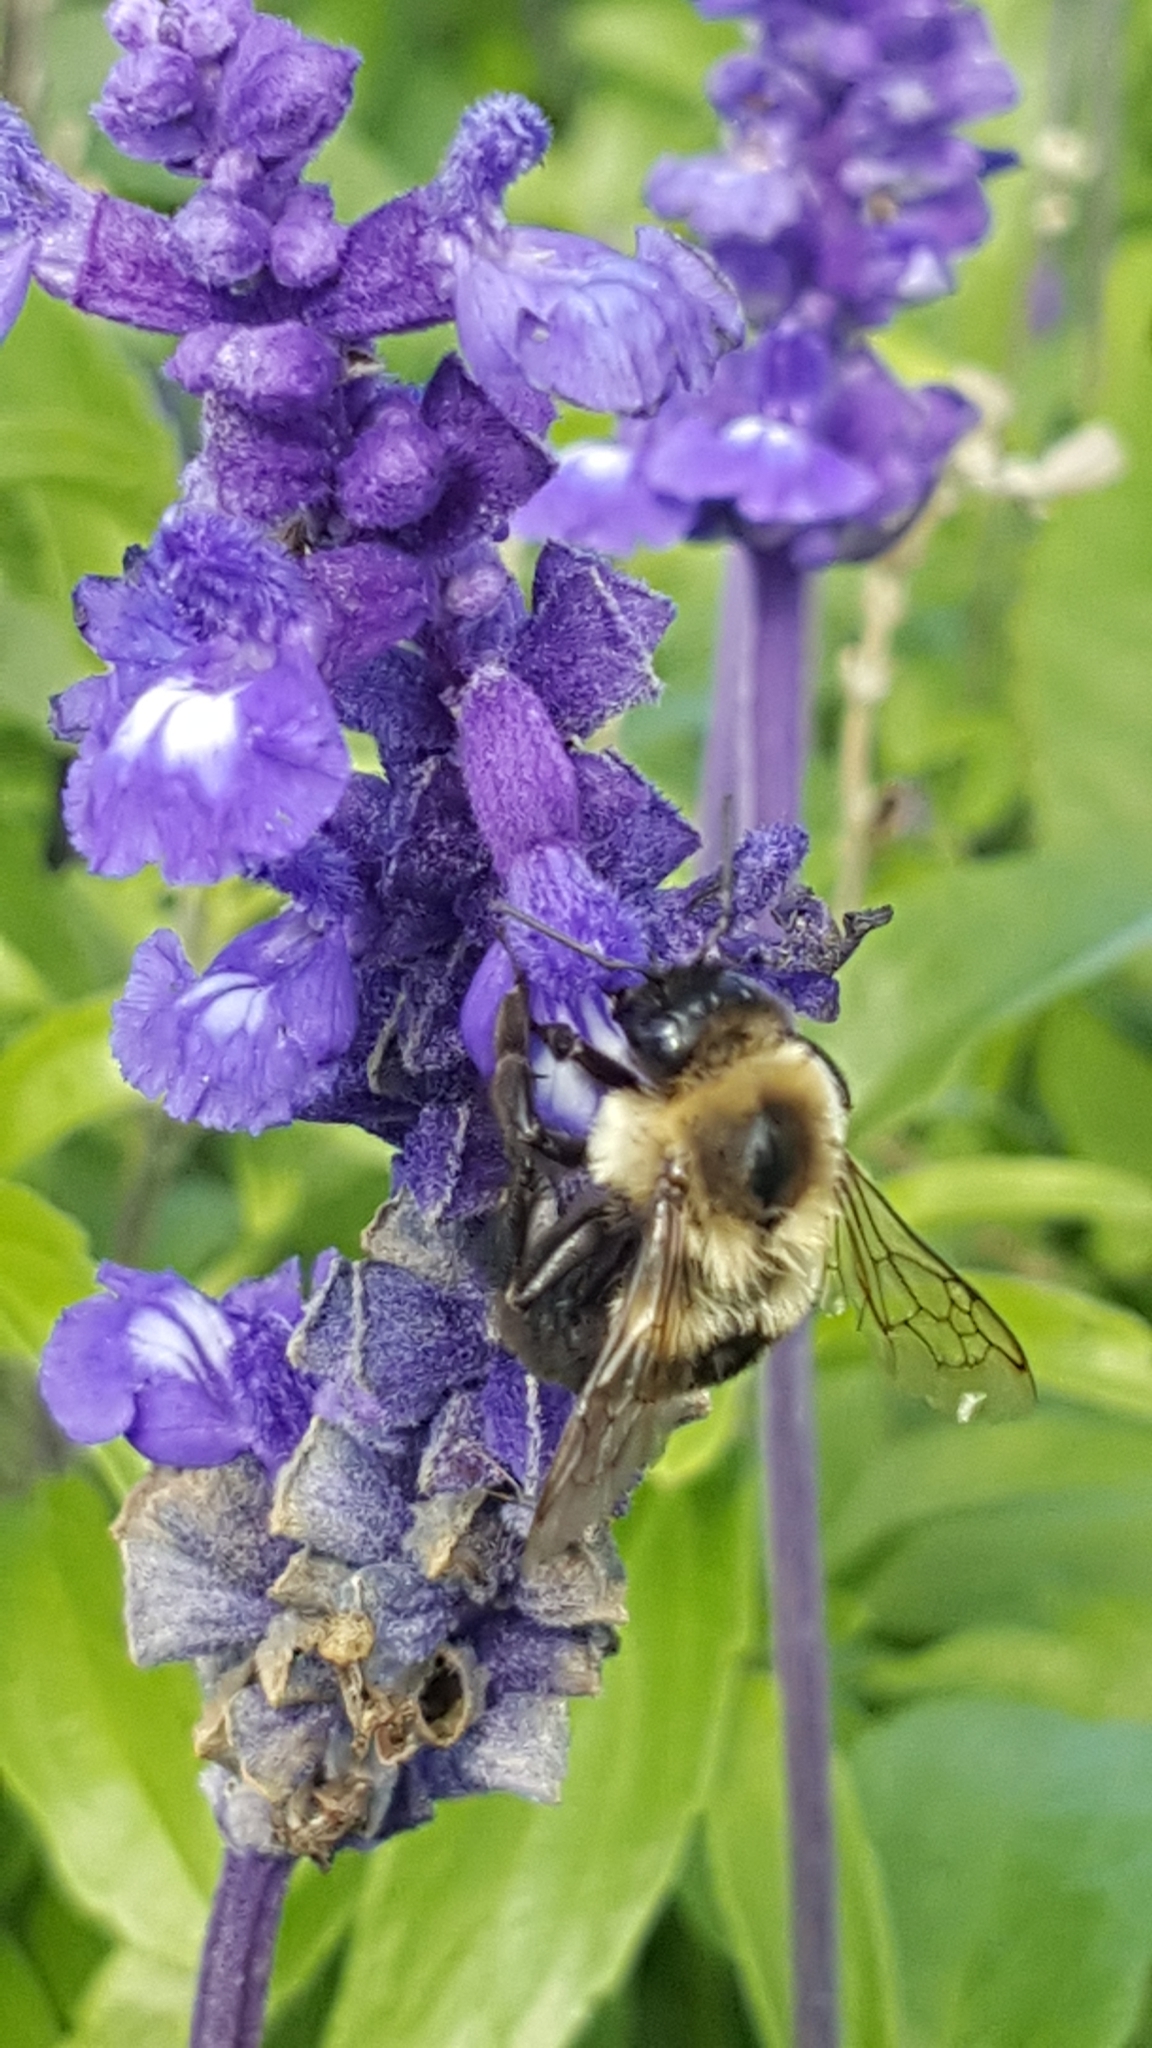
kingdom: Animalia
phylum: Arthropoda
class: Insecta
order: Hymenoptera
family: Apidae
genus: Bombus
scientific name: Bombus impatiens
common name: Common eastern bumble bee
